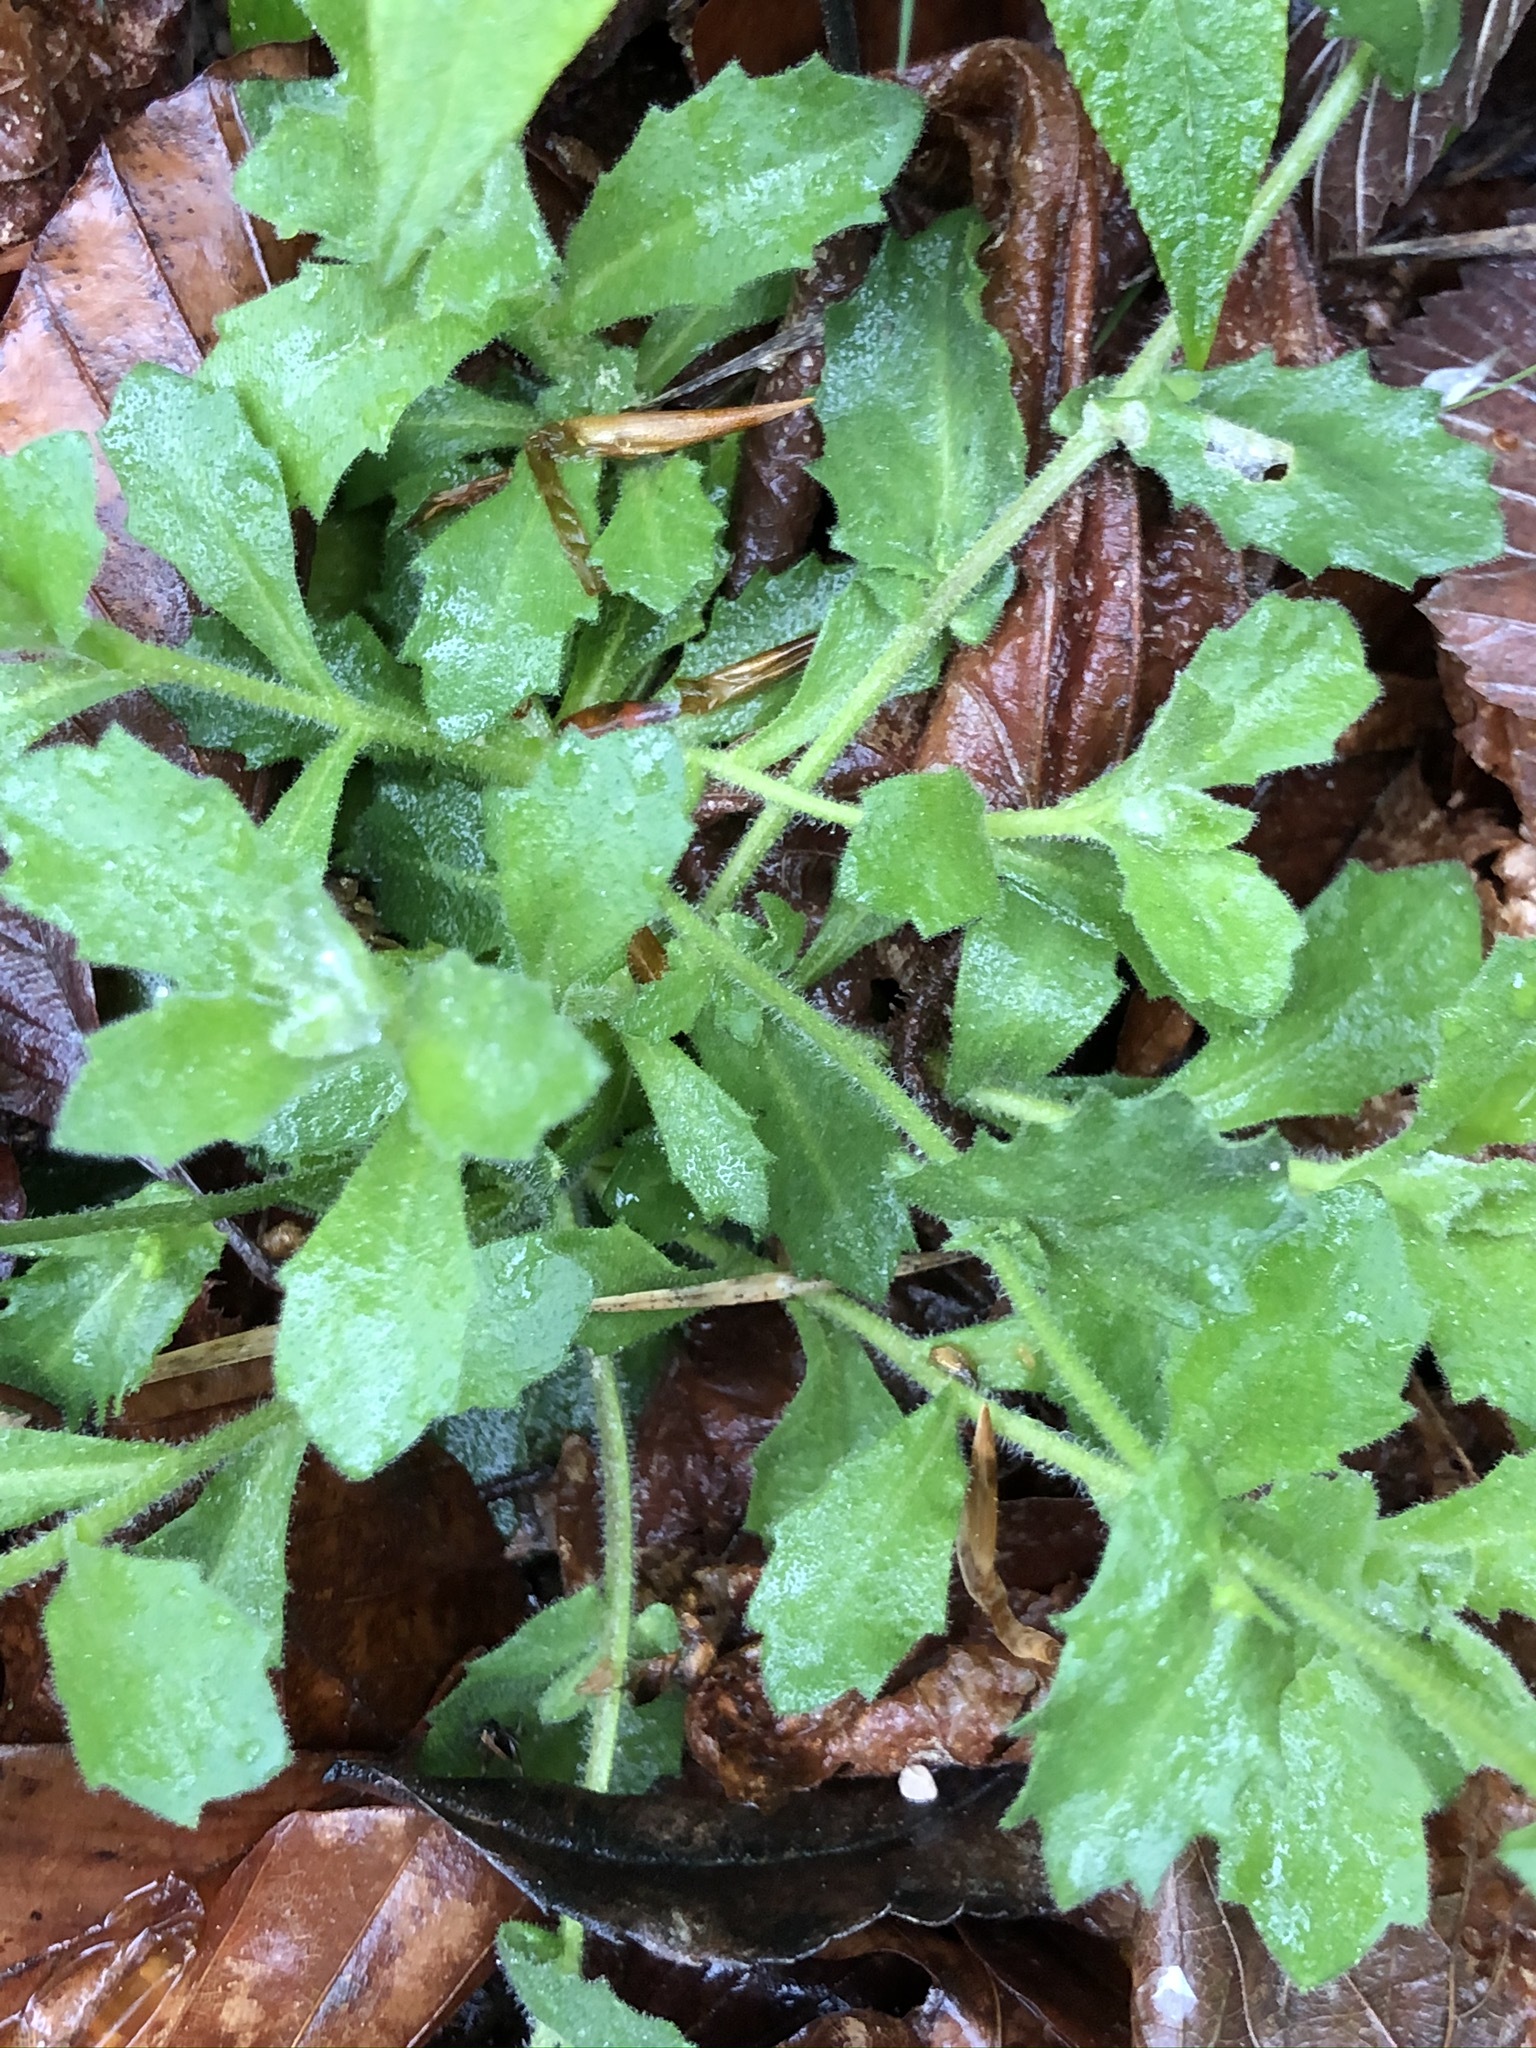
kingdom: Plantae
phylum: Tracheophyta
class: Magnoliopsida
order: Brassicales
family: Brassicaceae
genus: Arabis
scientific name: Arabis alpina
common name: Alpine rock-cress
